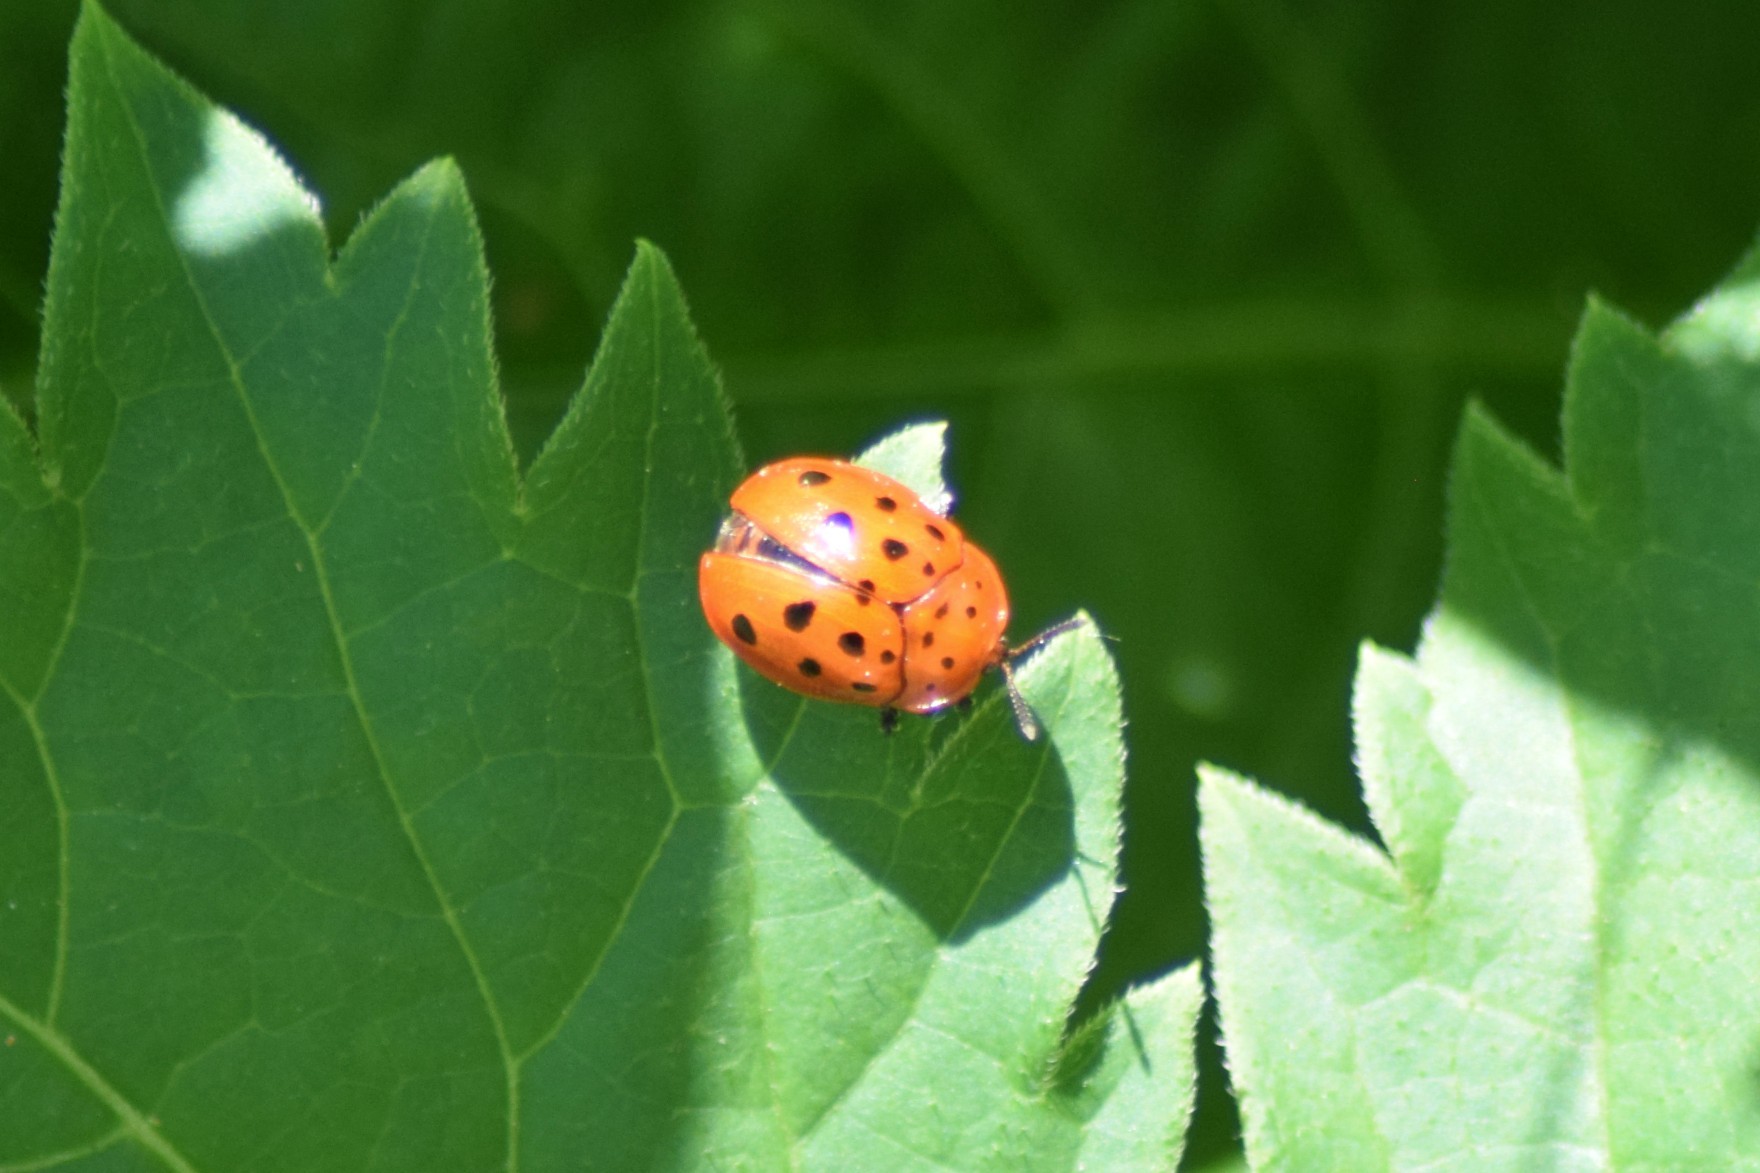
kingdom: Animalia
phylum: Arthropoda
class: Insecta
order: Coleoptera
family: Chrysomelidae
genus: Chelymorpha
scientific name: Chelymorpha cassidea
